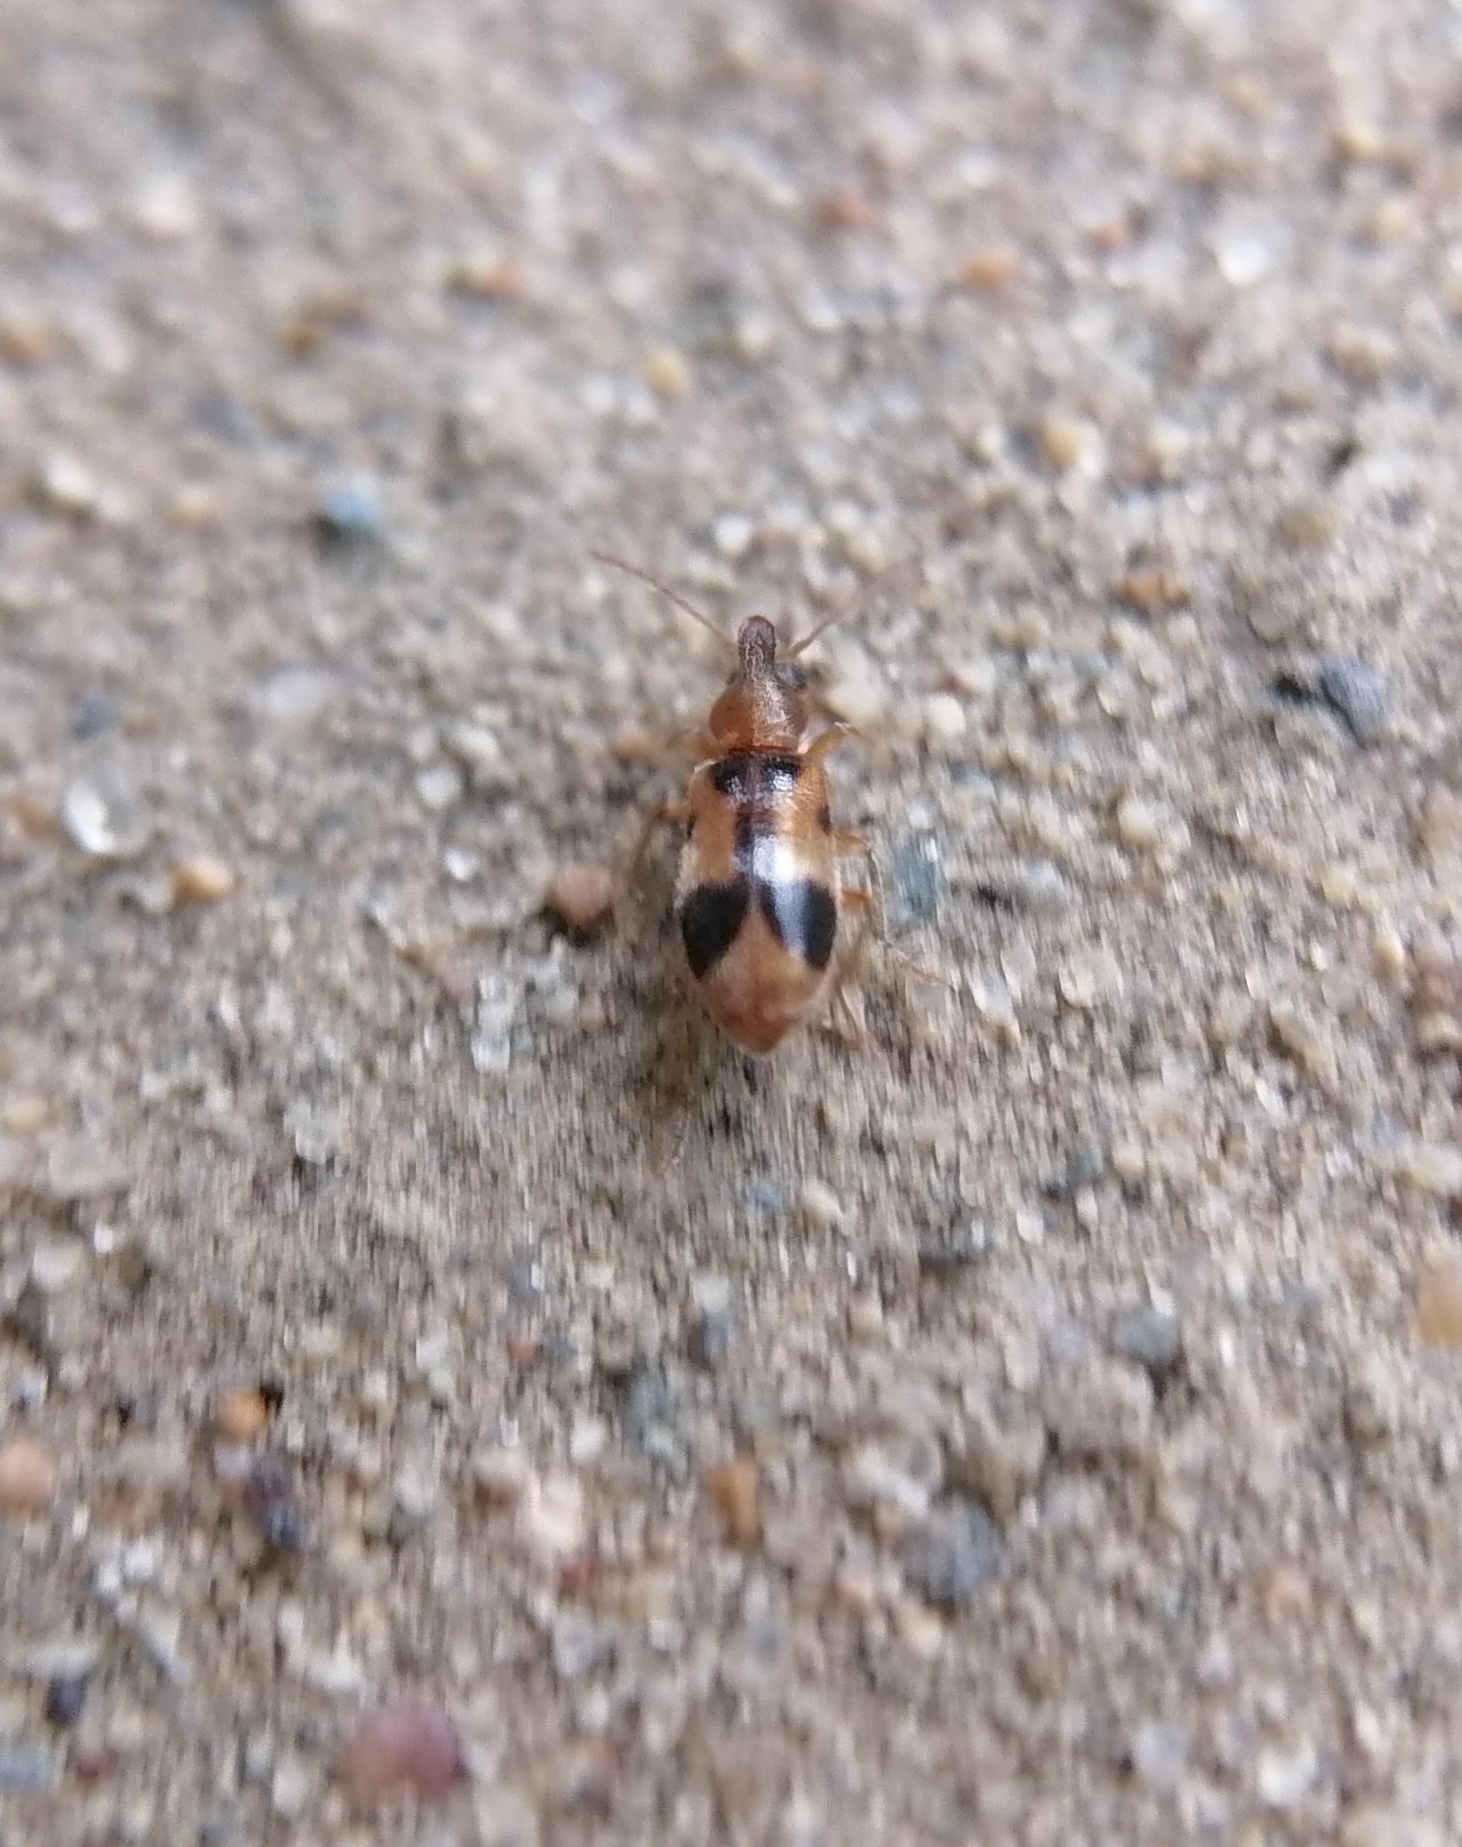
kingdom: Animalia
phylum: Arthropoda
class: Insecta
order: Coleoptera
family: Anthicidae
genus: Notoxus
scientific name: Notoxus monoceros
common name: Monoceros beetle
